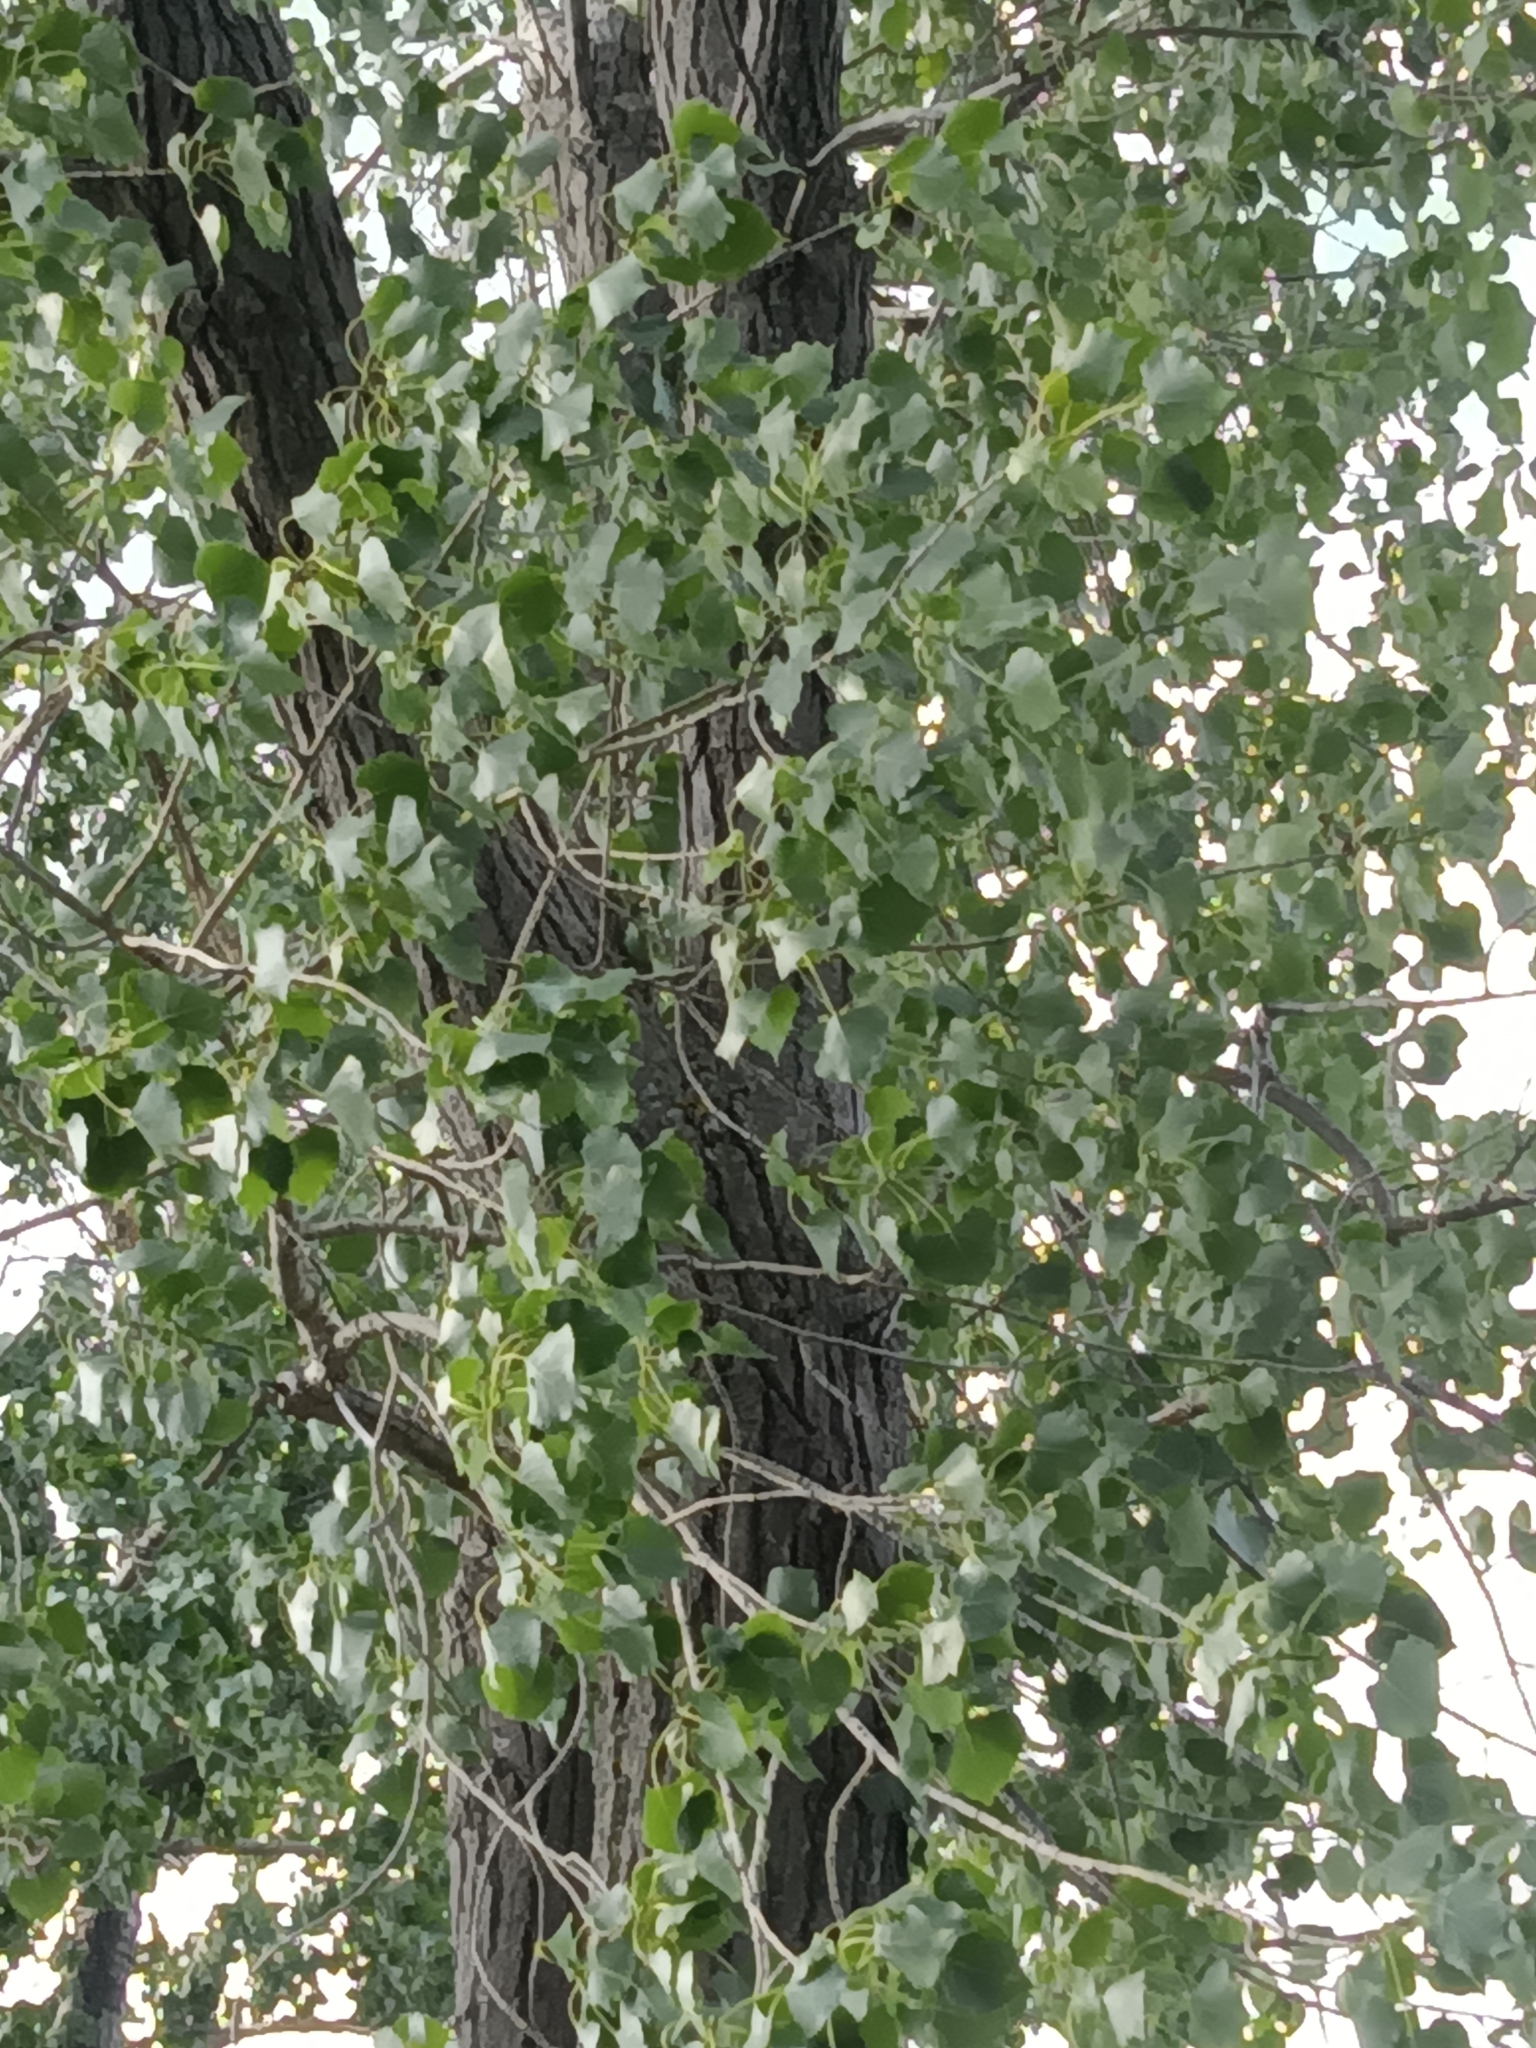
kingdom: Plantae
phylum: Tracheophyta
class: Magnoliopsida
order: Malpighiales
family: Salicaceae
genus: Populus
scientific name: Populus deltoides
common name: Eastern cottonwood
